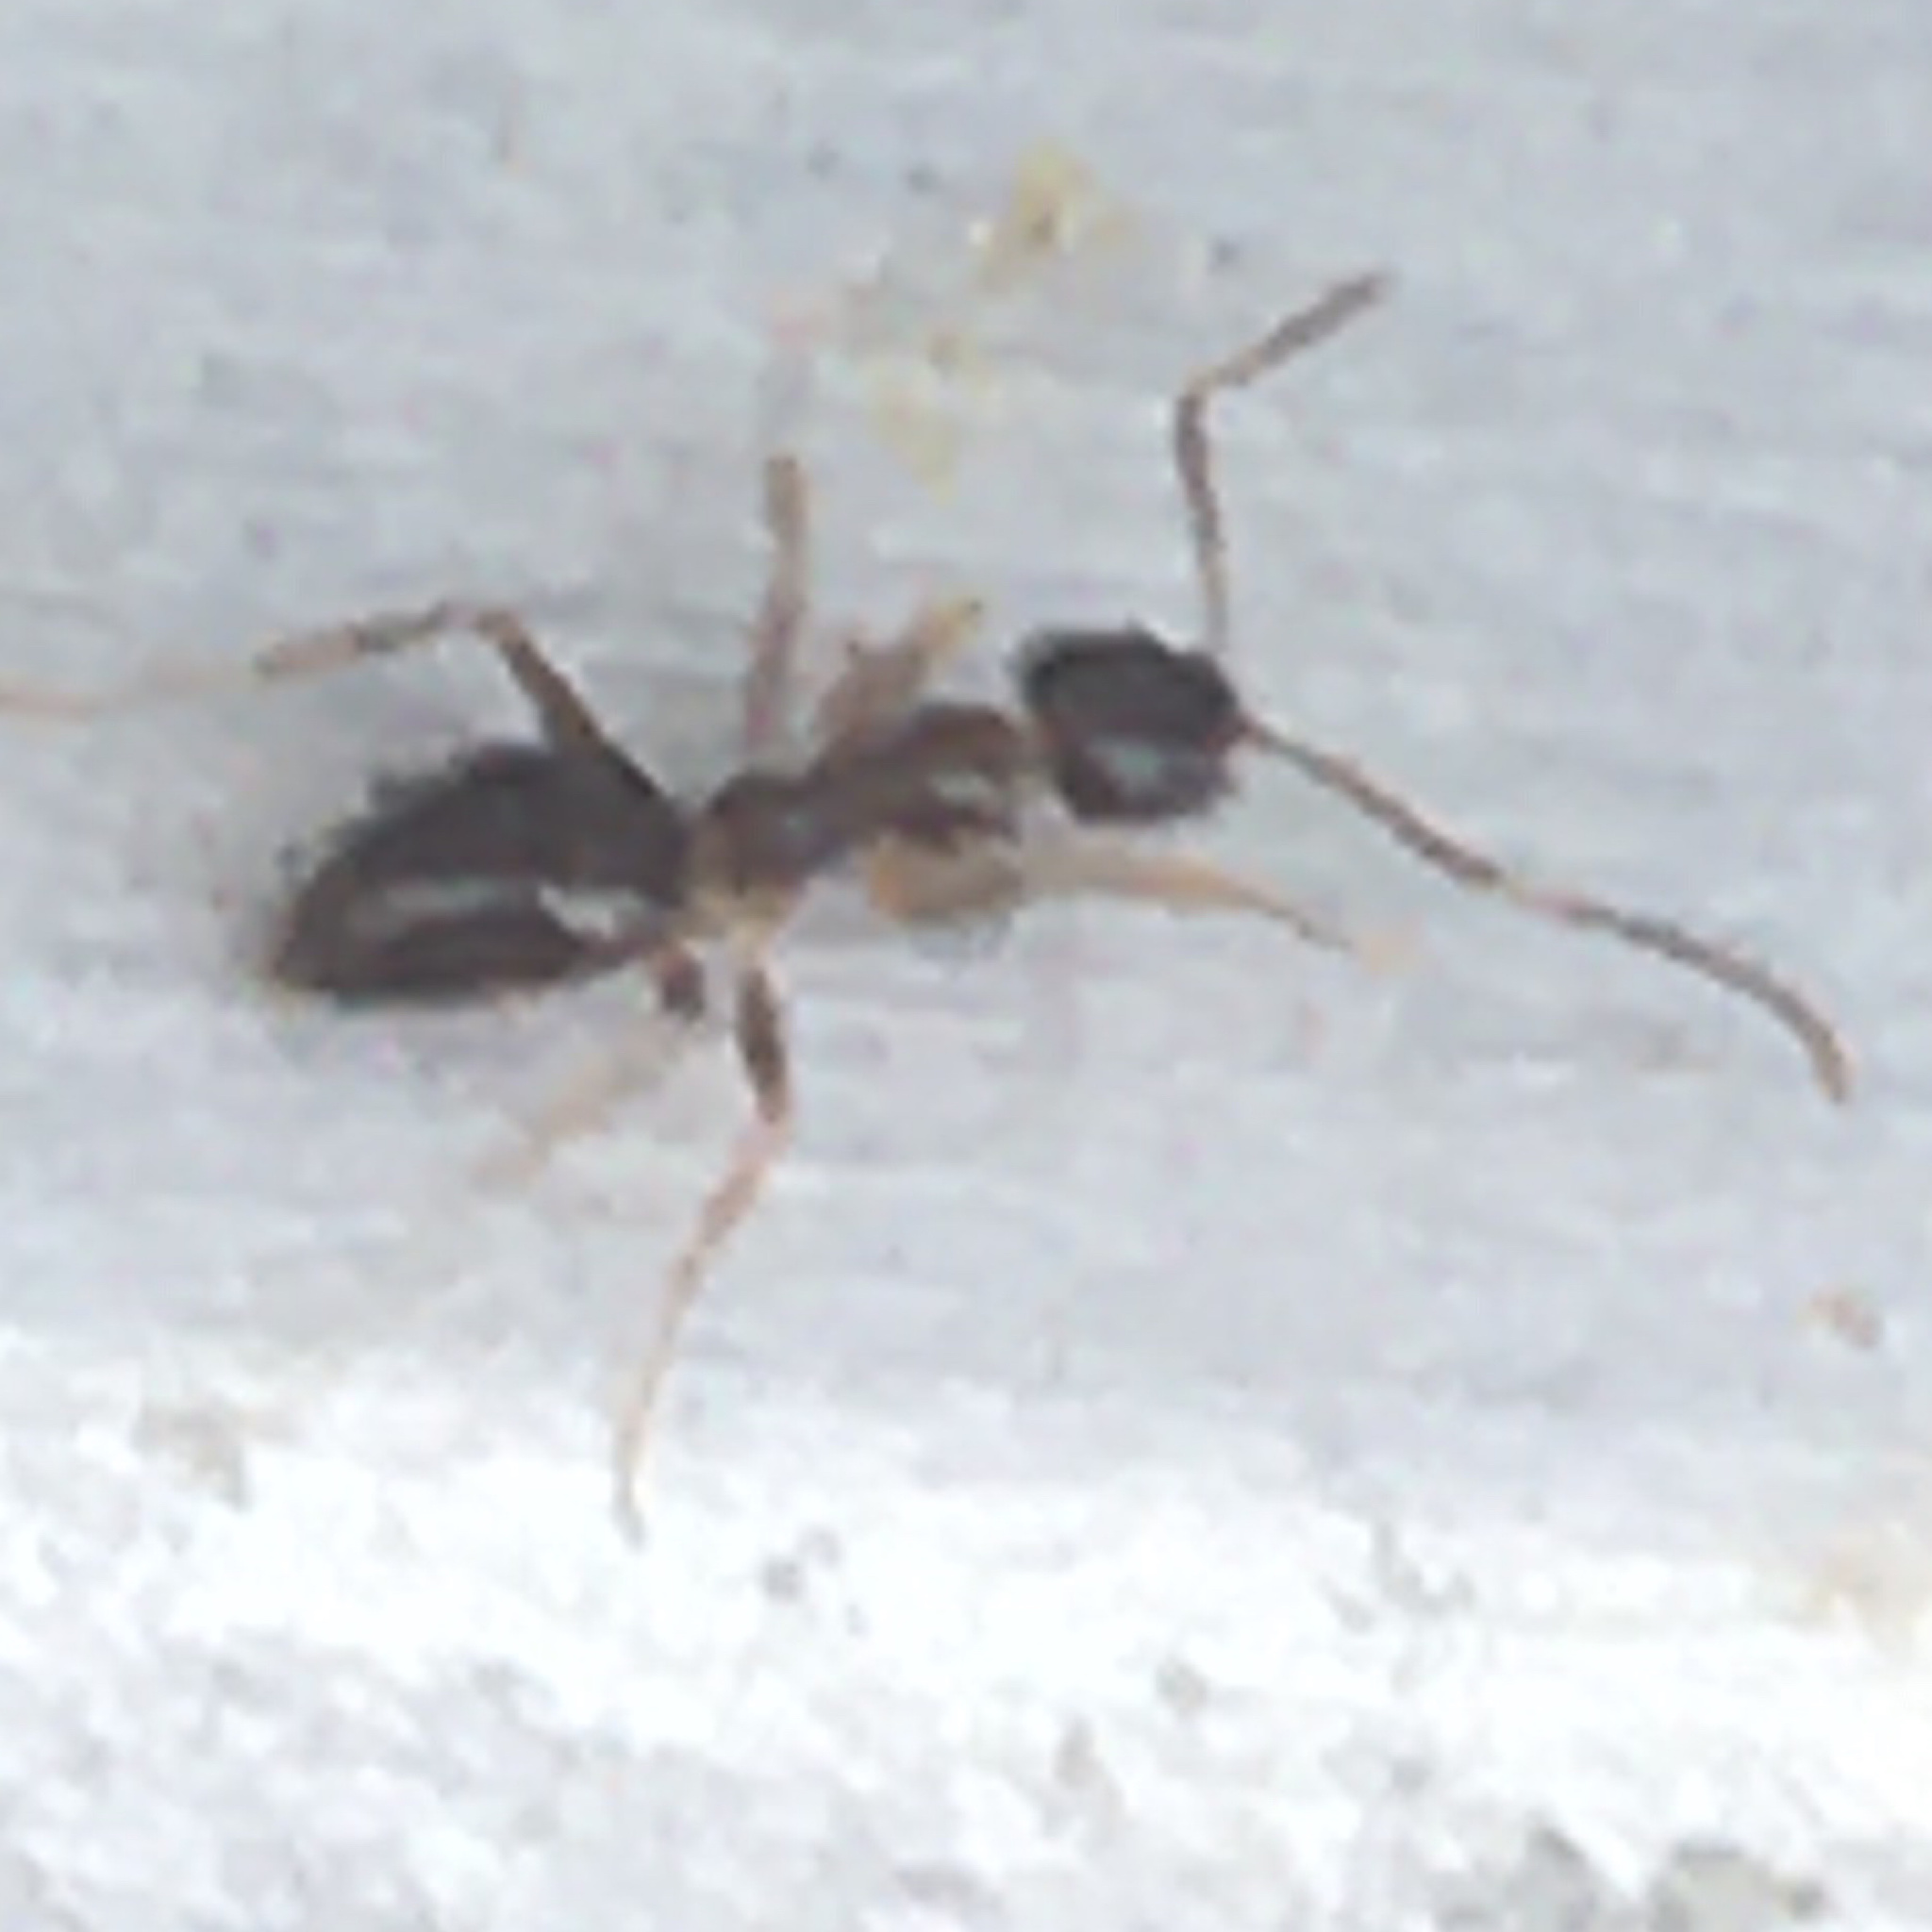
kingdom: Animalia
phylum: Arthropoda
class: Insecta
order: Hymenoptera
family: Formicidae
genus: Nylanderia
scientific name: Nylanderia faisonensis
